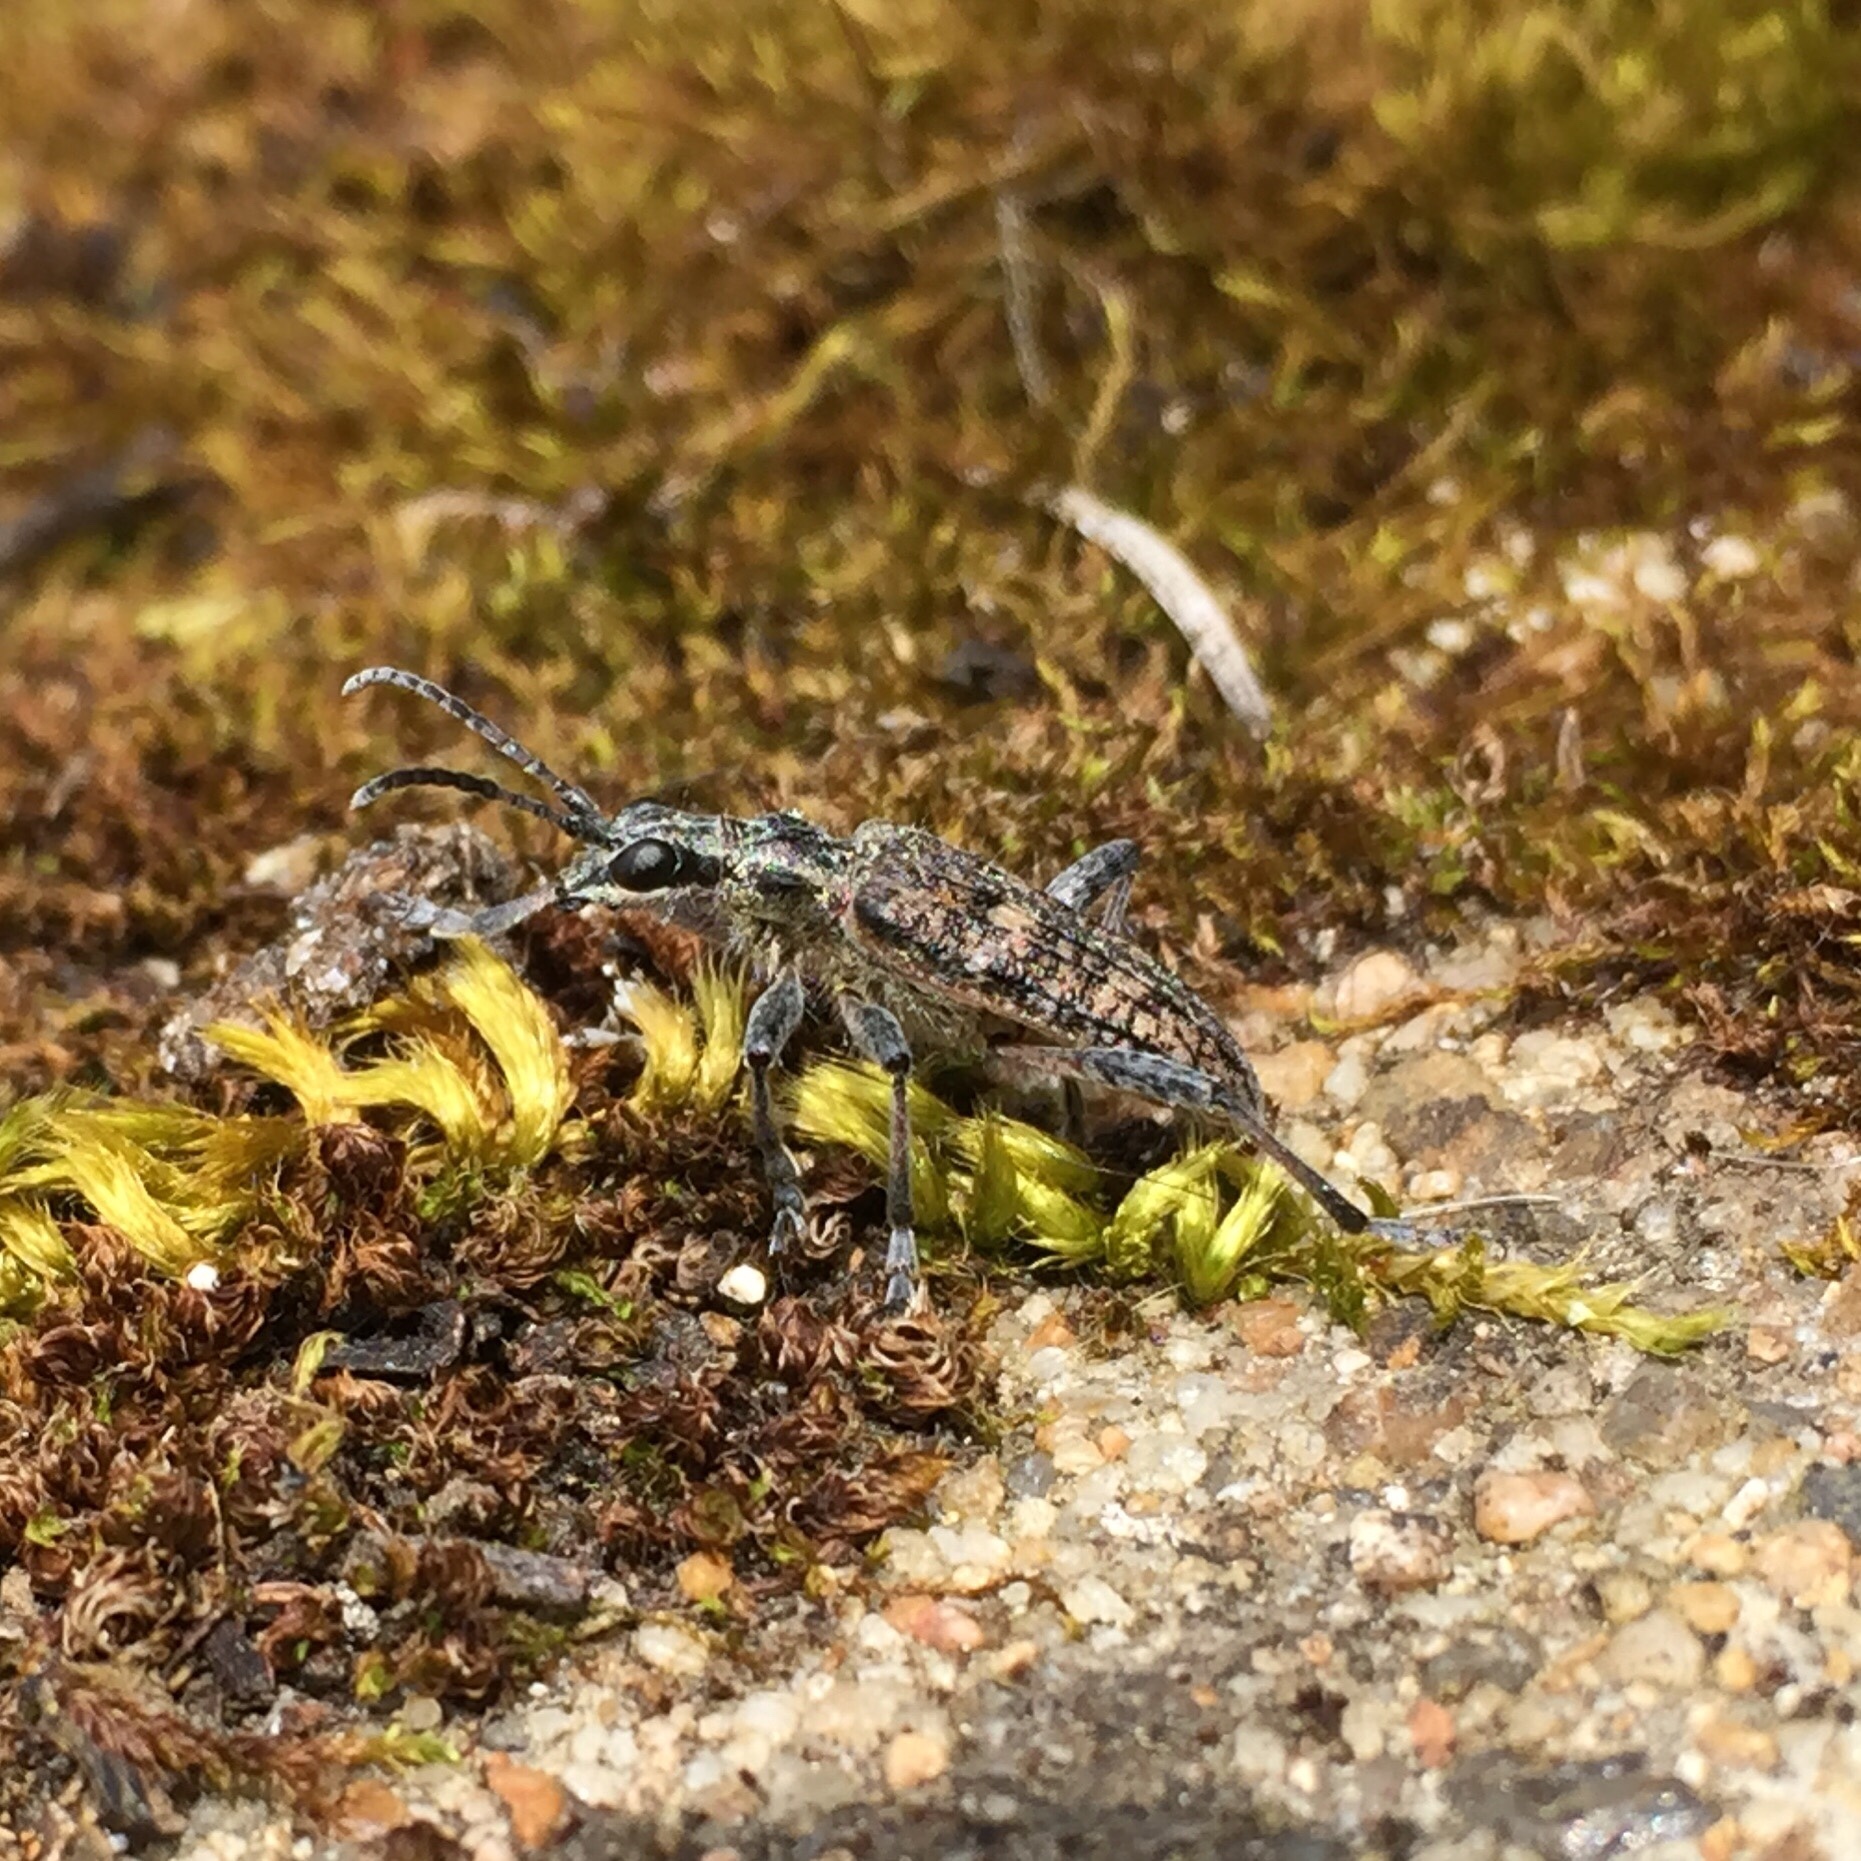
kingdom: Animalia
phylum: Arthropoda
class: Insecta
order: Coleoptera
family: Cerambycidae
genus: Rhagium
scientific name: Rhagium inquisitor
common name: Ribbed pine borer
